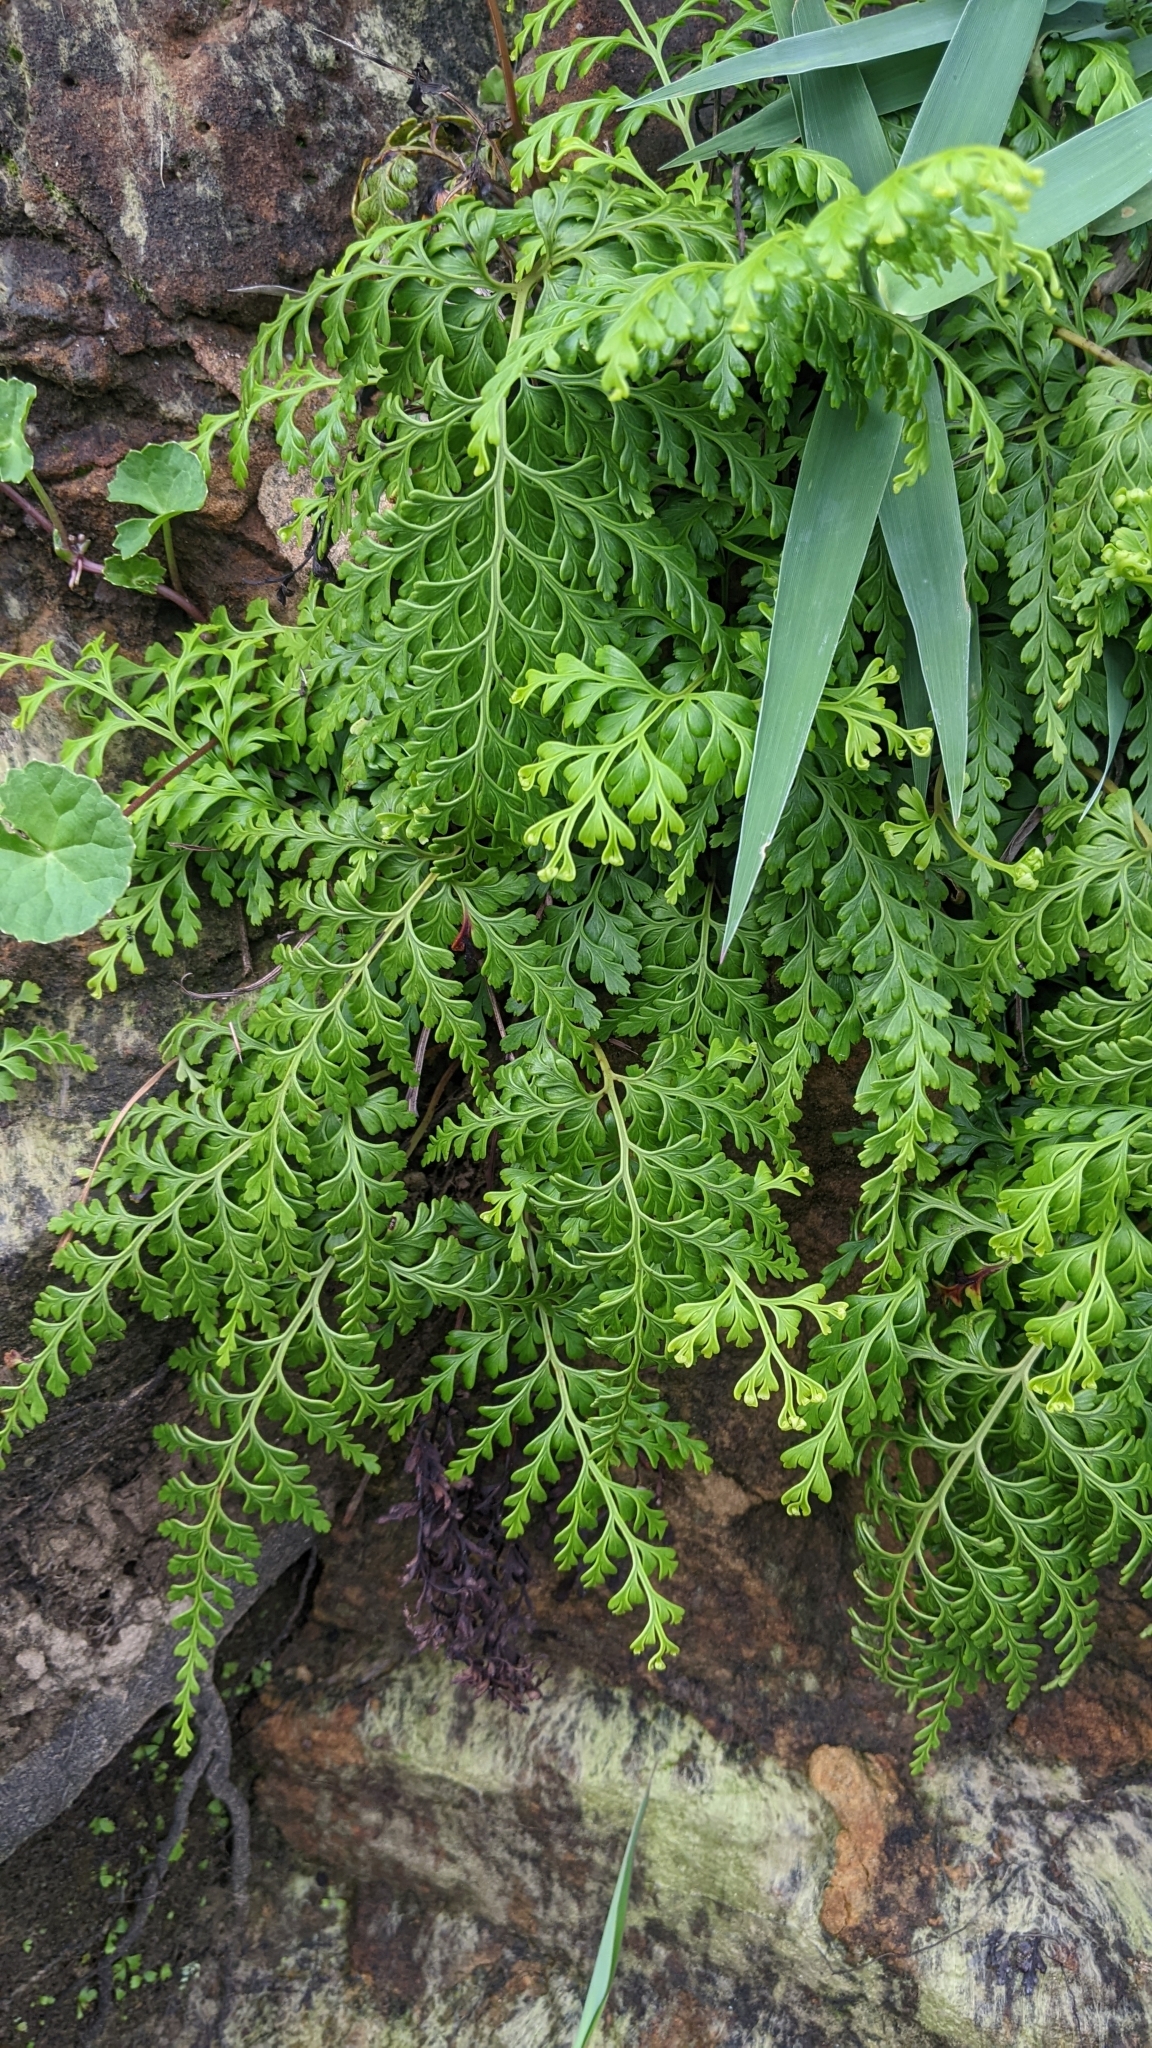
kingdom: Plantae
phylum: Tracheophyta
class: Polypodiopsida
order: Polypodiales
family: Lindsaeaceae
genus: Odontosoria
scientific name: Odontosoria biflora
